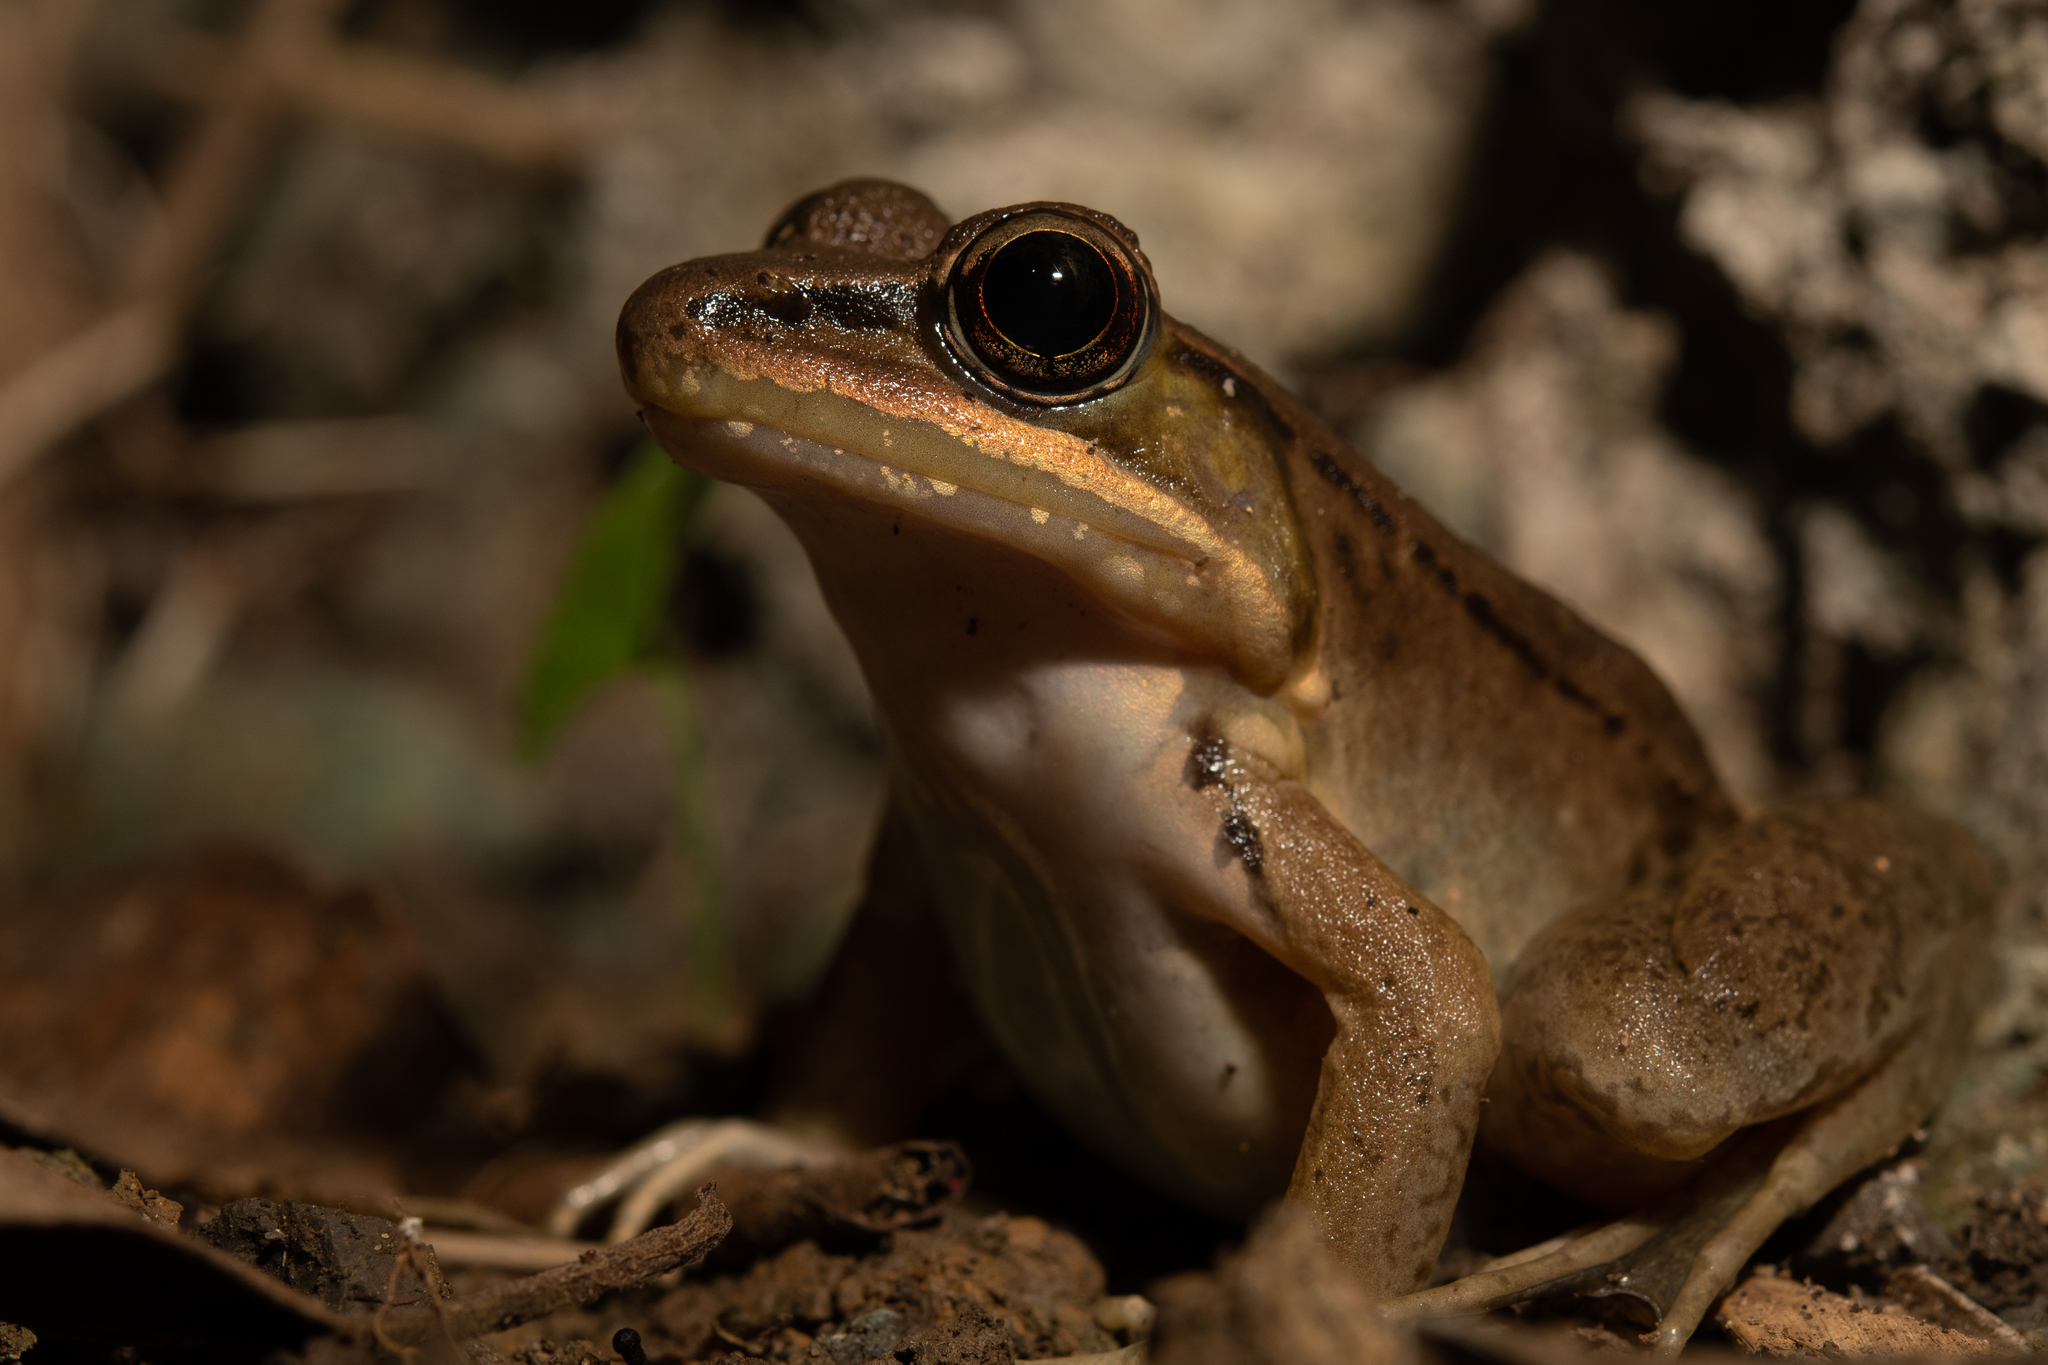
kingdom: Animalia
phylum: Chordata
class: Amphibia
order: Anura
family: Ranidae
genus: Lithobates
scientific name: Lithobates maculatus
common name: Highland frog
